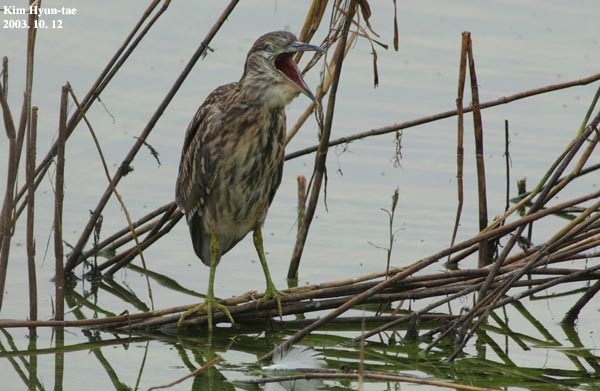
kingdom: Animalia
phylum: Chordata
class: Aves
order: Pelecaniformes
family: Ardeidae
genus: Nycticorax
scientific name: Nycticorax nycticorax
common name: Black-crowned night heron
